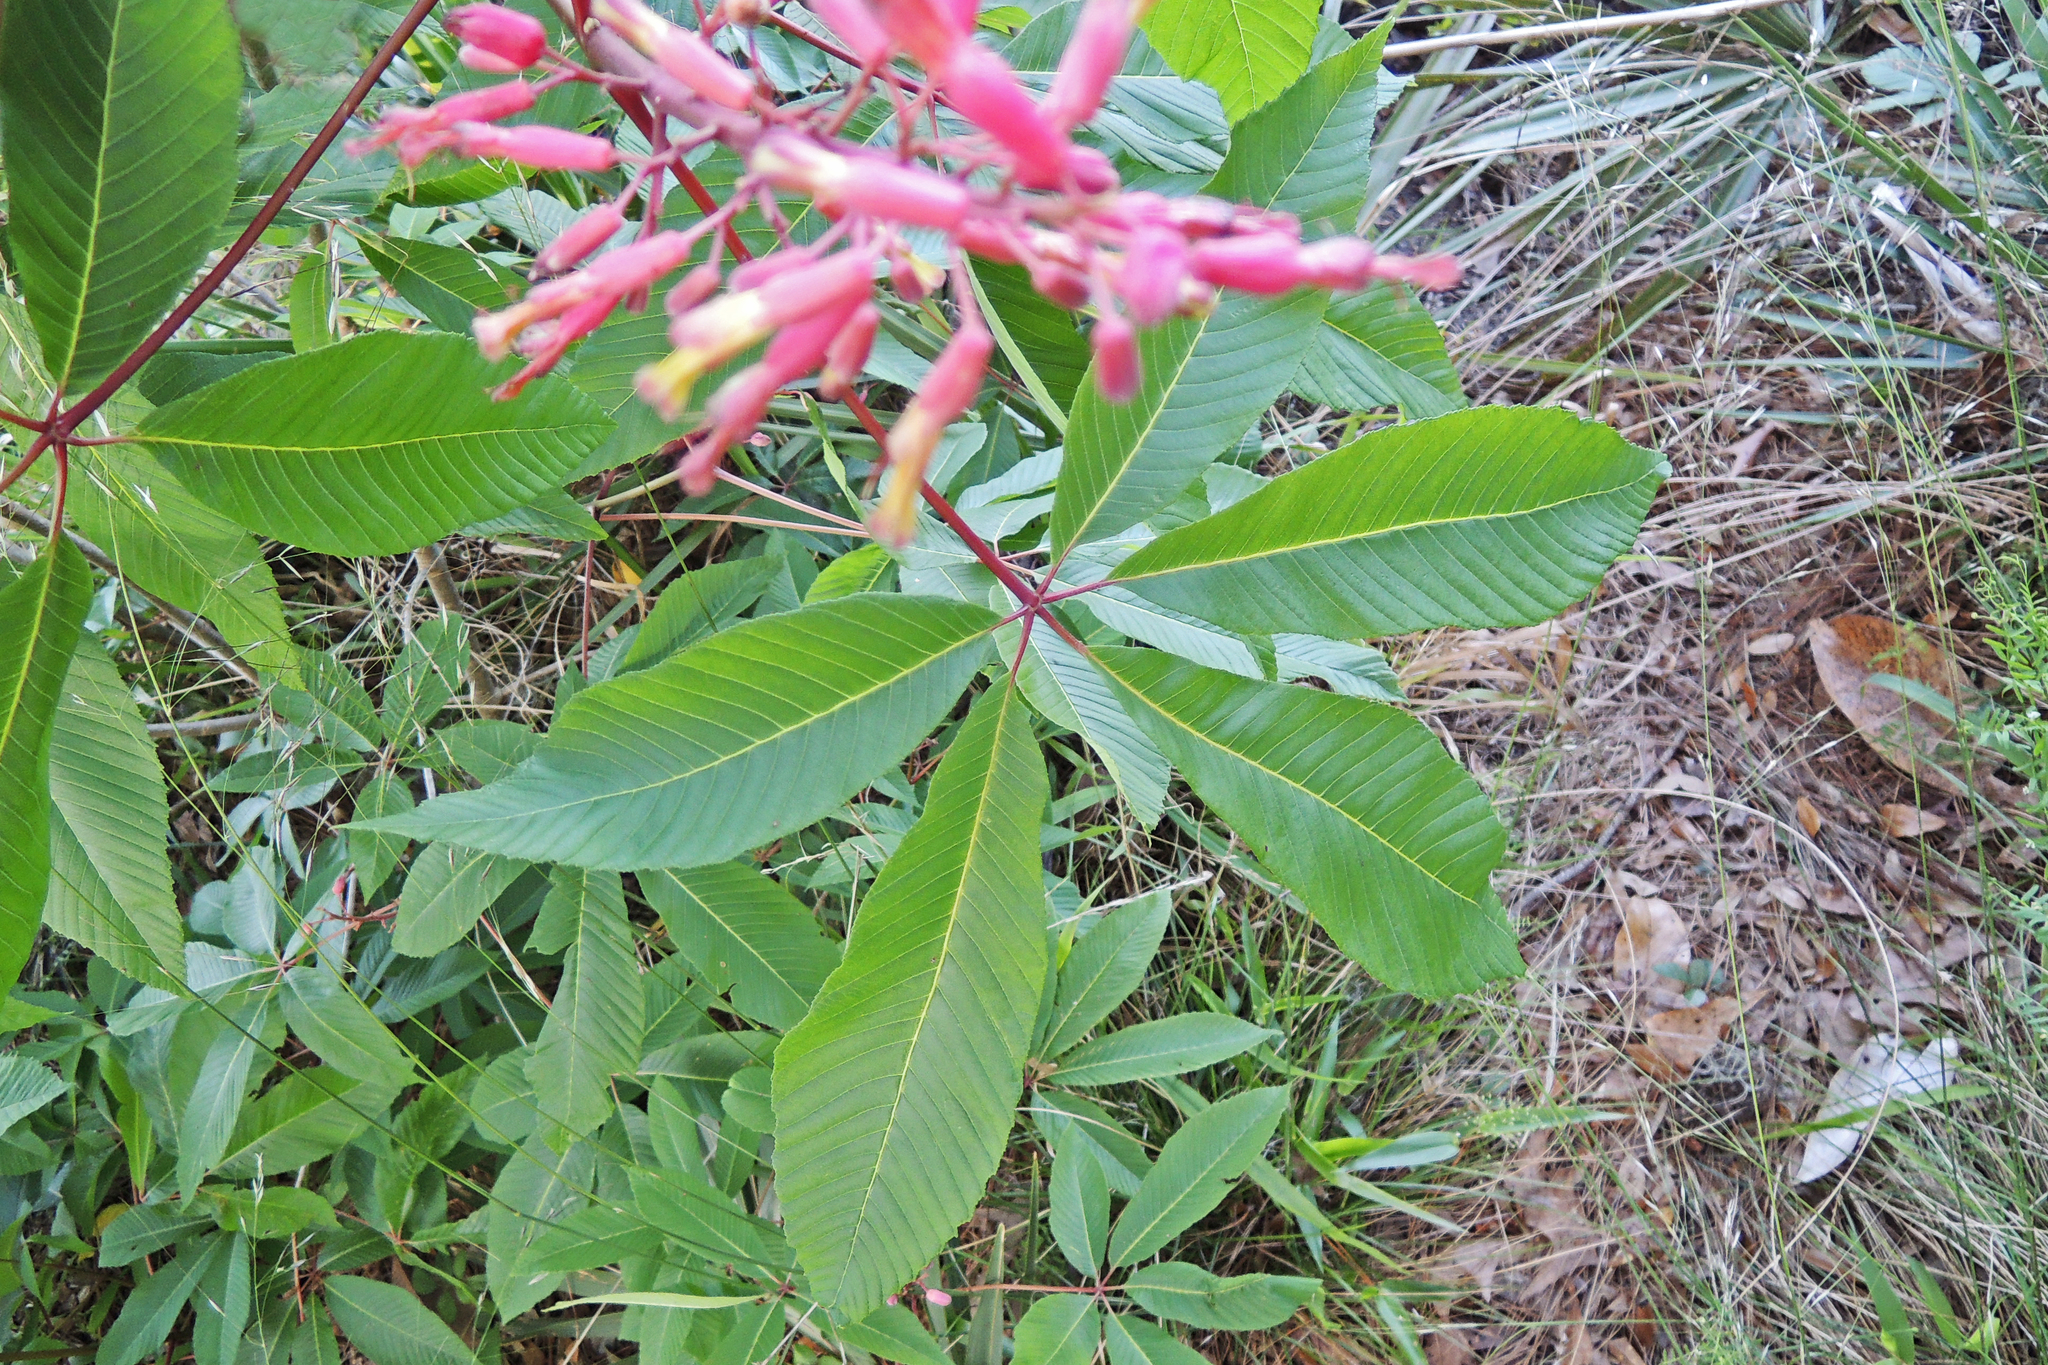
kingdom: Plantae
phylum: Tracheophyta
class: Magnoliopsida
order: Sapindales
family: Sapindaceae
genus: Aesculus
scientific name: Aesculus pavia
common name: Red buckeye
